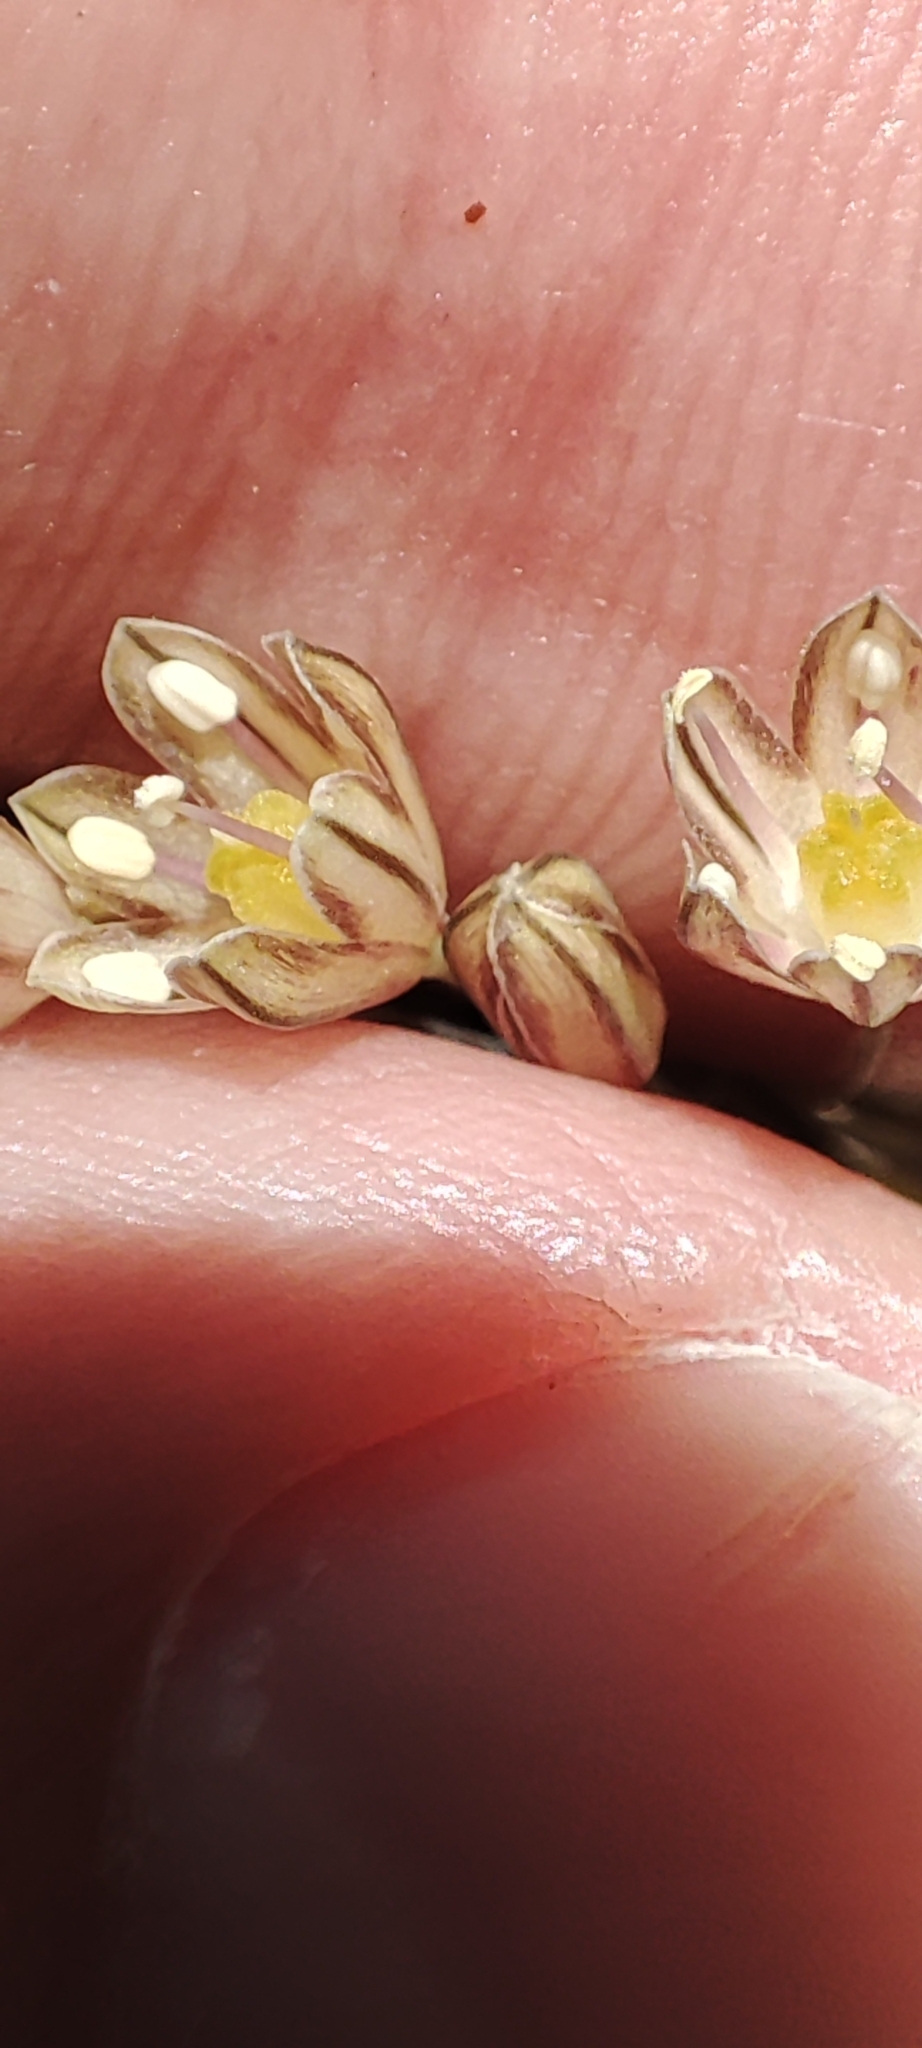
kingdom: Plantae
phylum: Tracheophyta
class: Liliopsida
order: Asparagales
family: Amaryllidaceae
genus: Allium
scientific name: Allium oleraceum
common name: Field garlic
